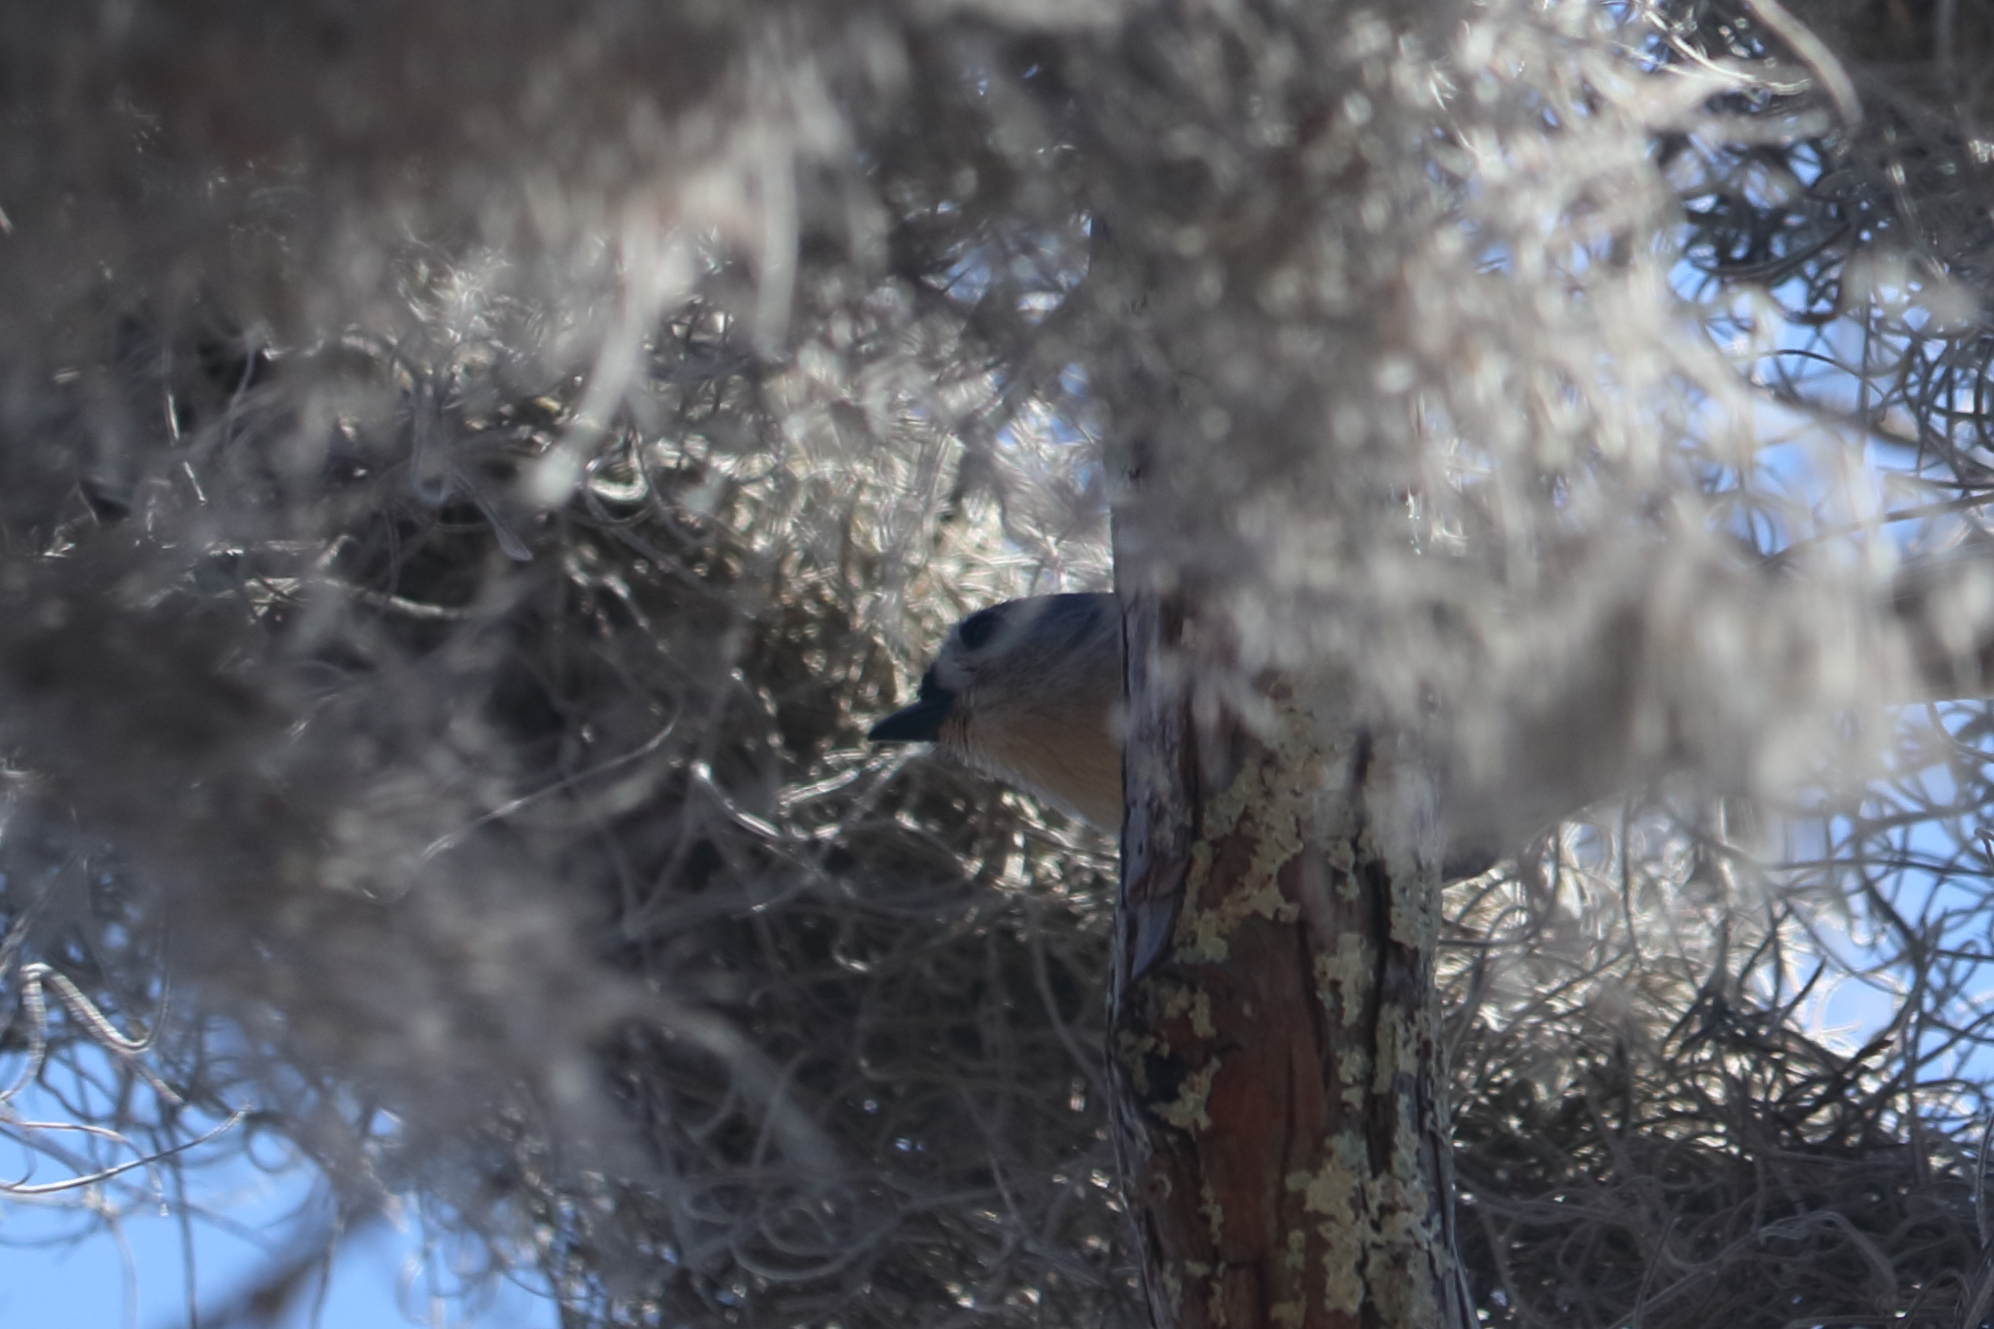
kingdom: Animalia
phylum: Chordata
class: Aves
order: Passeriformes
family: Paridae
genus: Baeolophus
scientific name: Baeolophus bicolor
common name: Tufted titmouse
